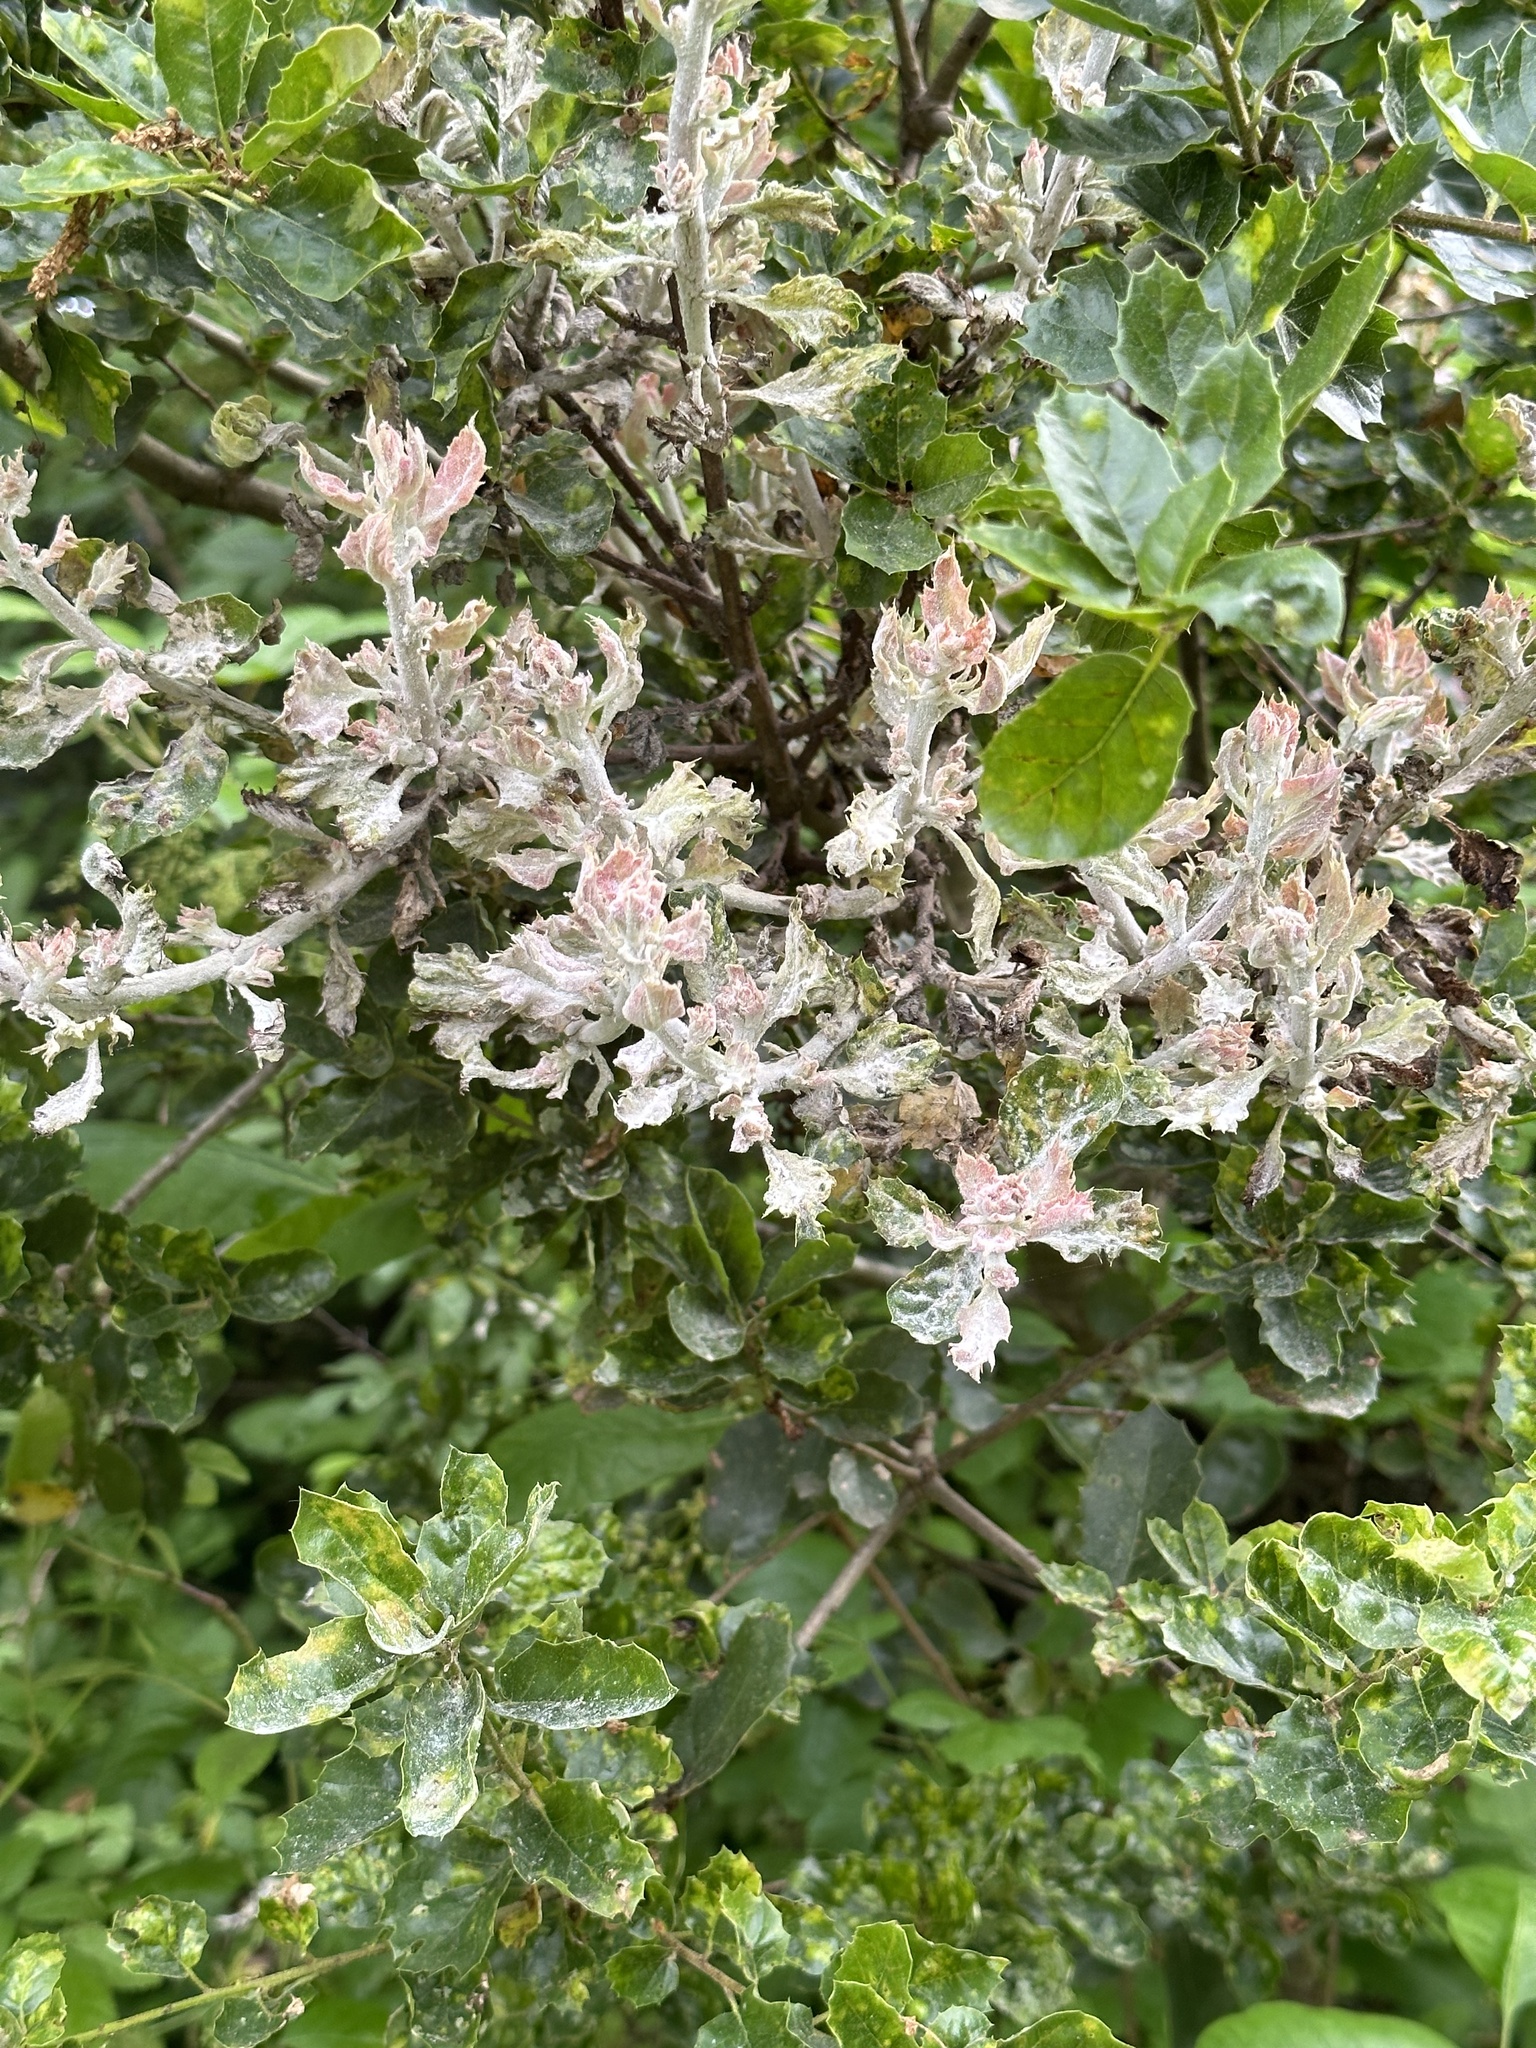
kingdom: Fungi
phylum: Ascomycota
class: Leotiomycetes
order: Helotiales
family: Erysiphaceae
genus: Cystotheca
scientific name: Cystotheca lanestris
